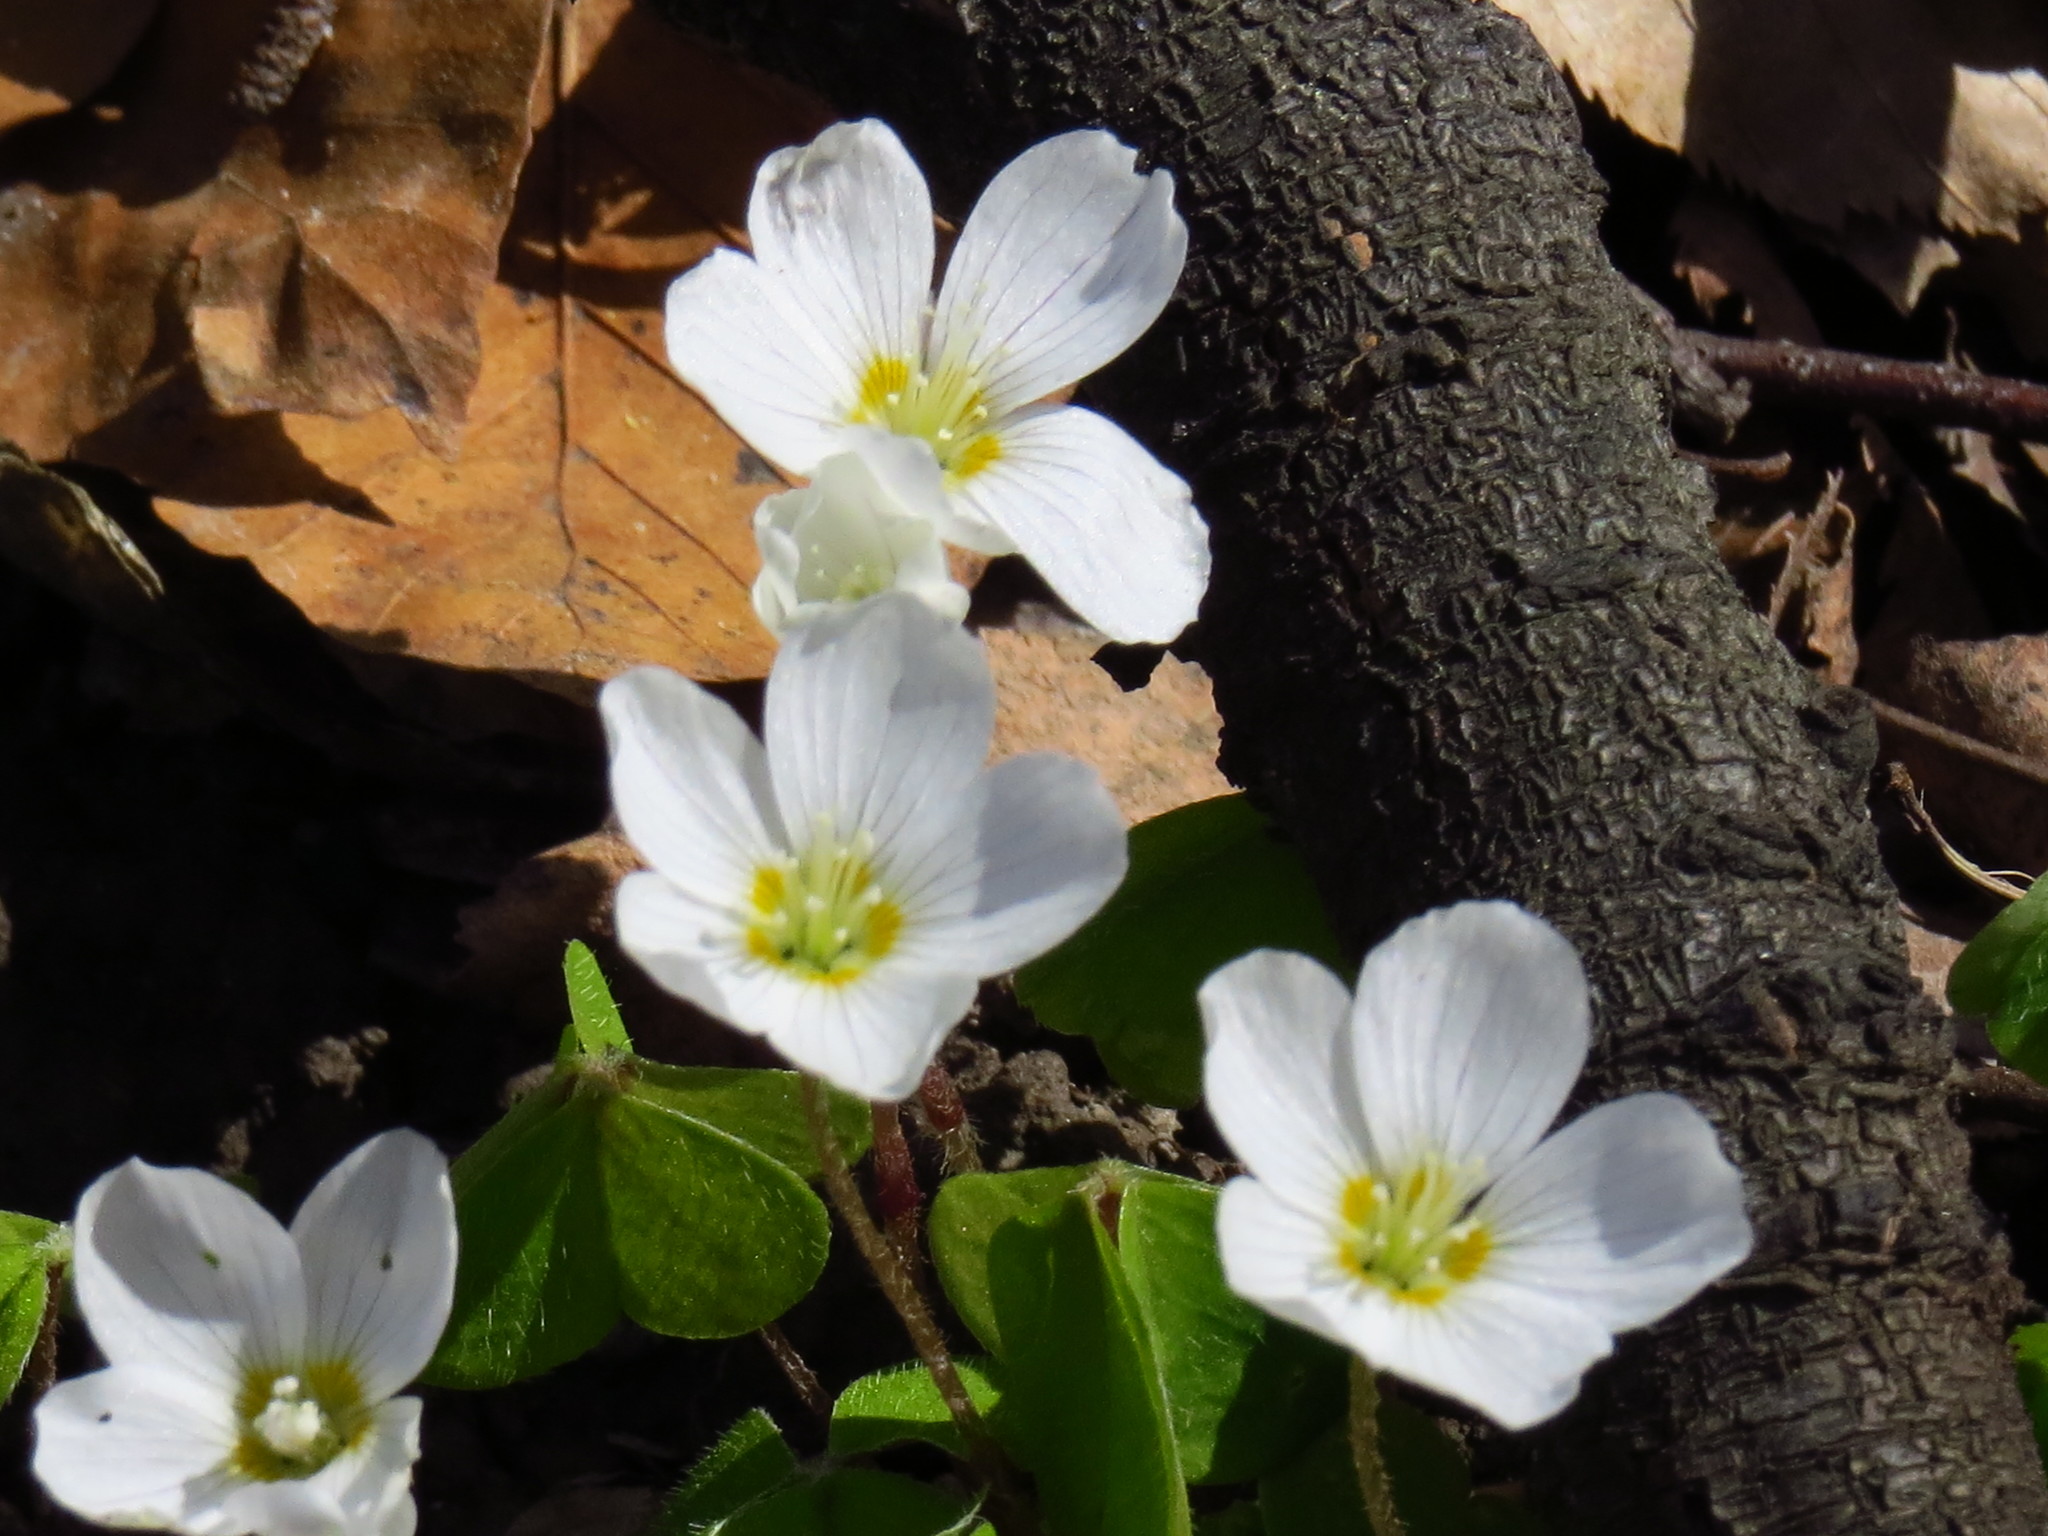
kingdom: Plantae
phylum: Tracheophyta
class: Magnoliopsida
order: Oxalidales
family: Oxalidaceae
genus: Oxalis
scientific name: Oxalis acetosella
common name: Wood-sorrel
